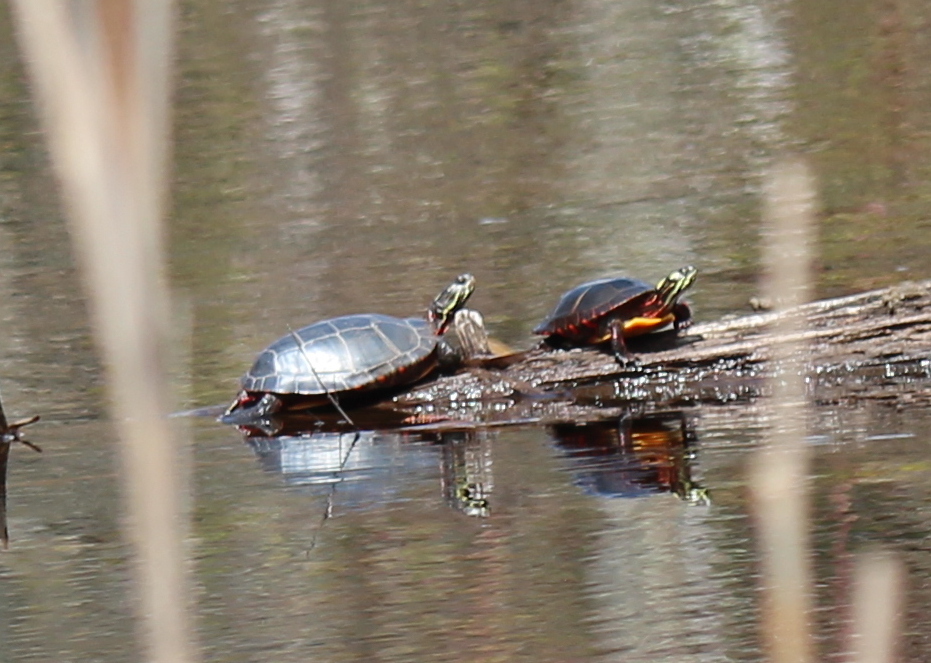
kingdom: Animalia
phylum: Chordata
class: Testudines
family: Emydidae
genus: Chrysemys
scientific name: Chrysemys picta
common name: Painted turtle
